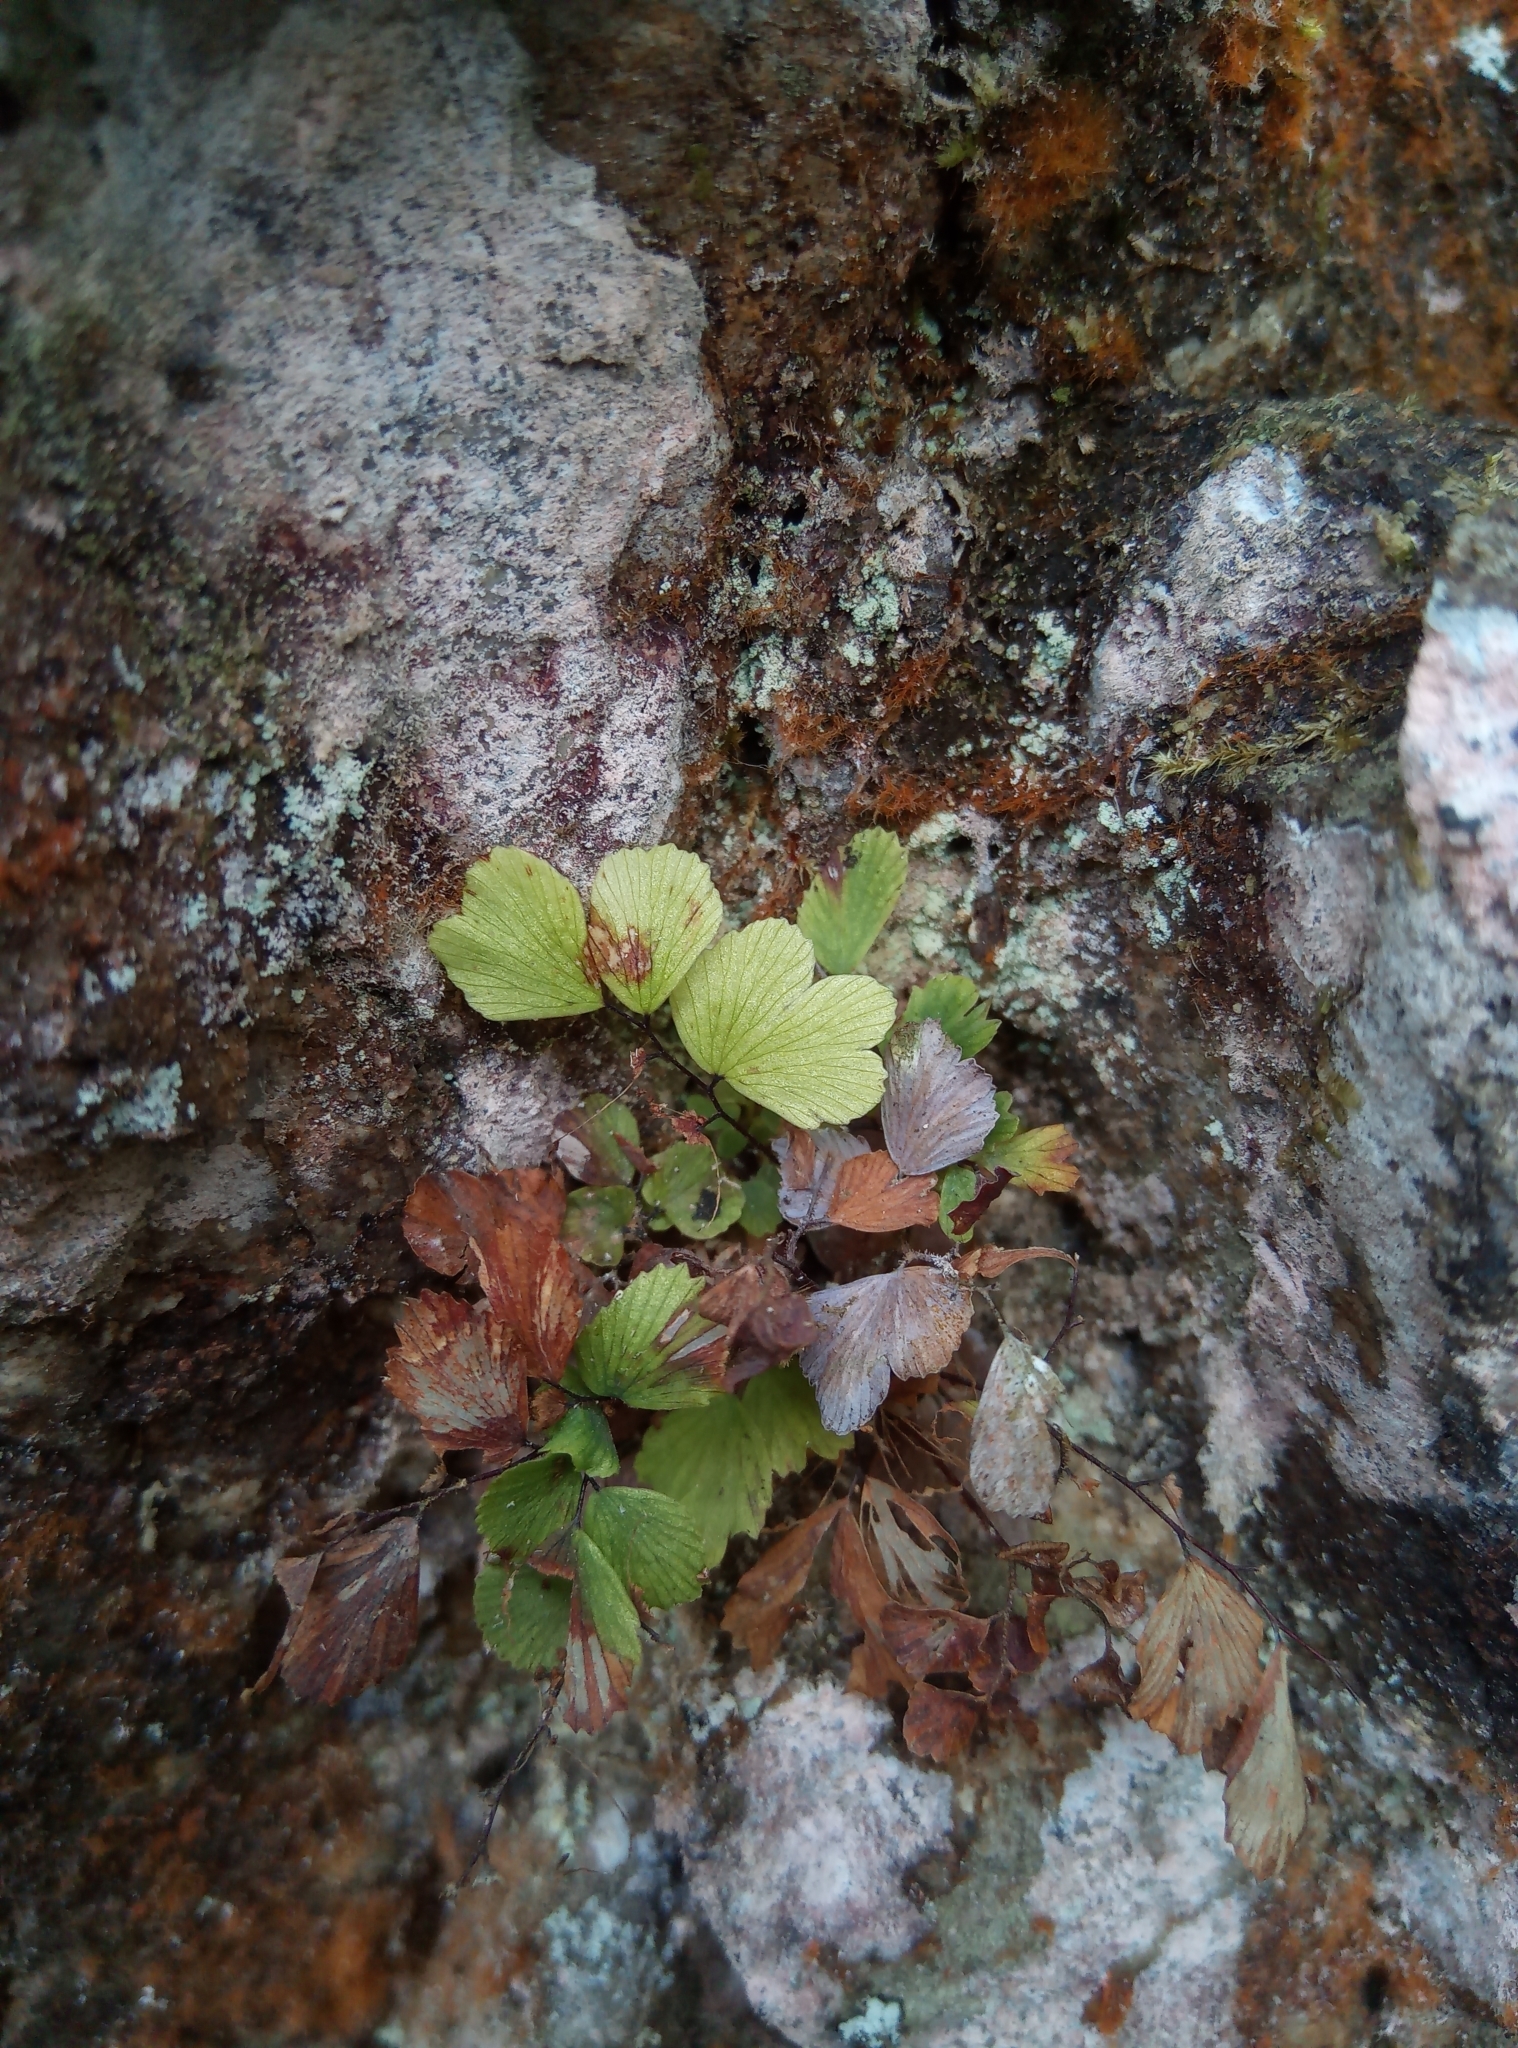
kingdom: Plantae
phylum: Tracheophyta
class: Polypodiopsida
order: Polypodiales
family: Pteridaceae
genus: Adiantum
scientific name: Adiantum capillus-veneris
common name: Maidenhair fern
